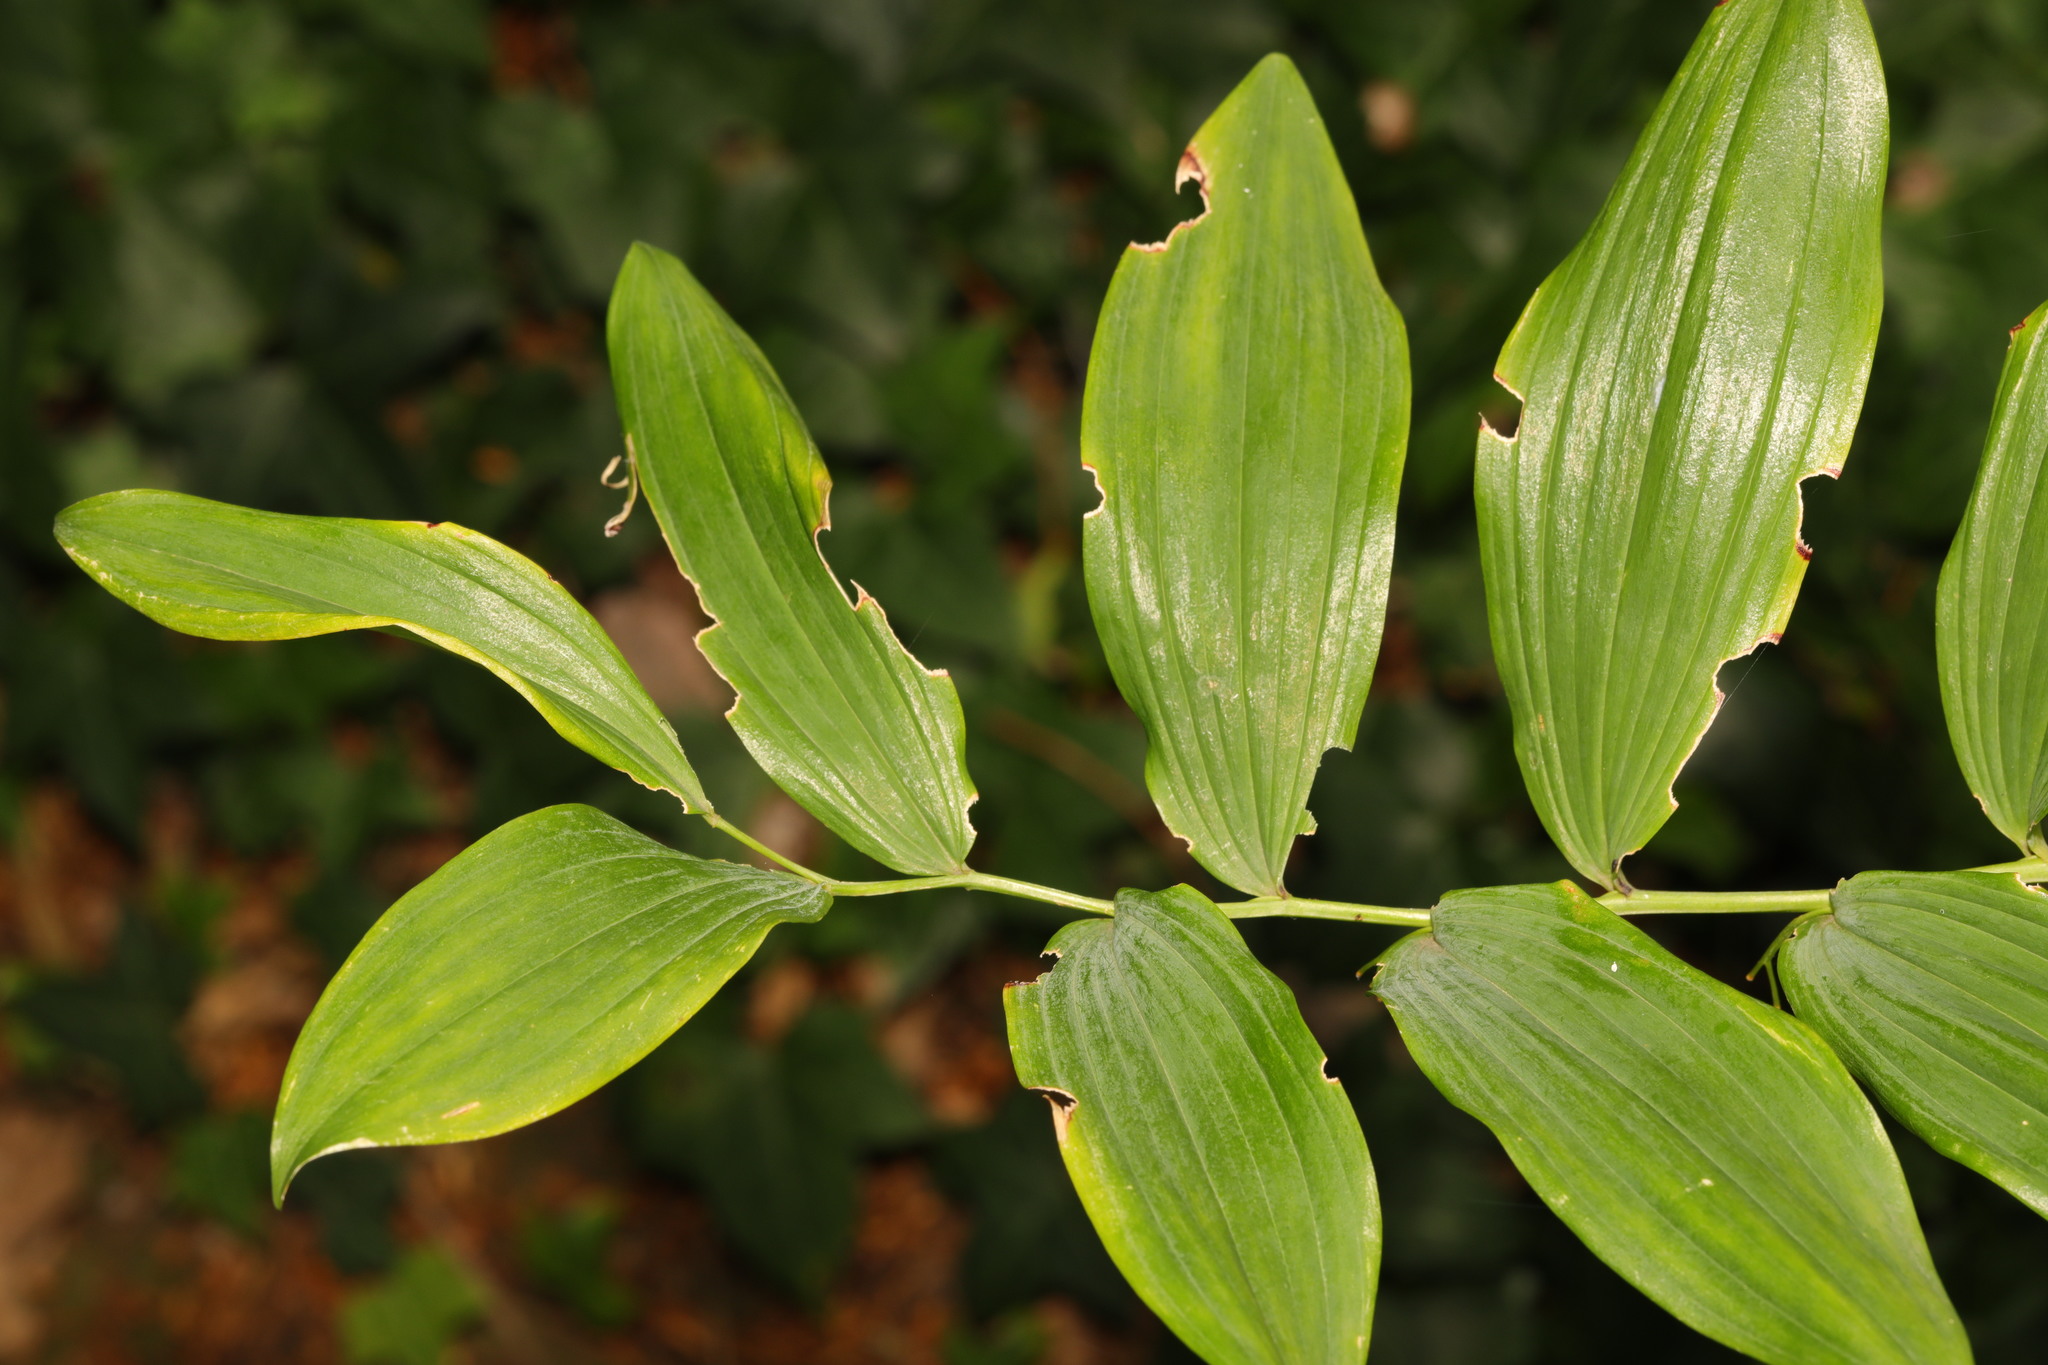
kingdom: Plantae
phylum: Tracheophyta
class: Liliopsida
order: Asparagales
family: Asparagaceae
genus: Polygonatum
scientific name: Polygonatum hybridum
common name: Garden solomon's-seal
